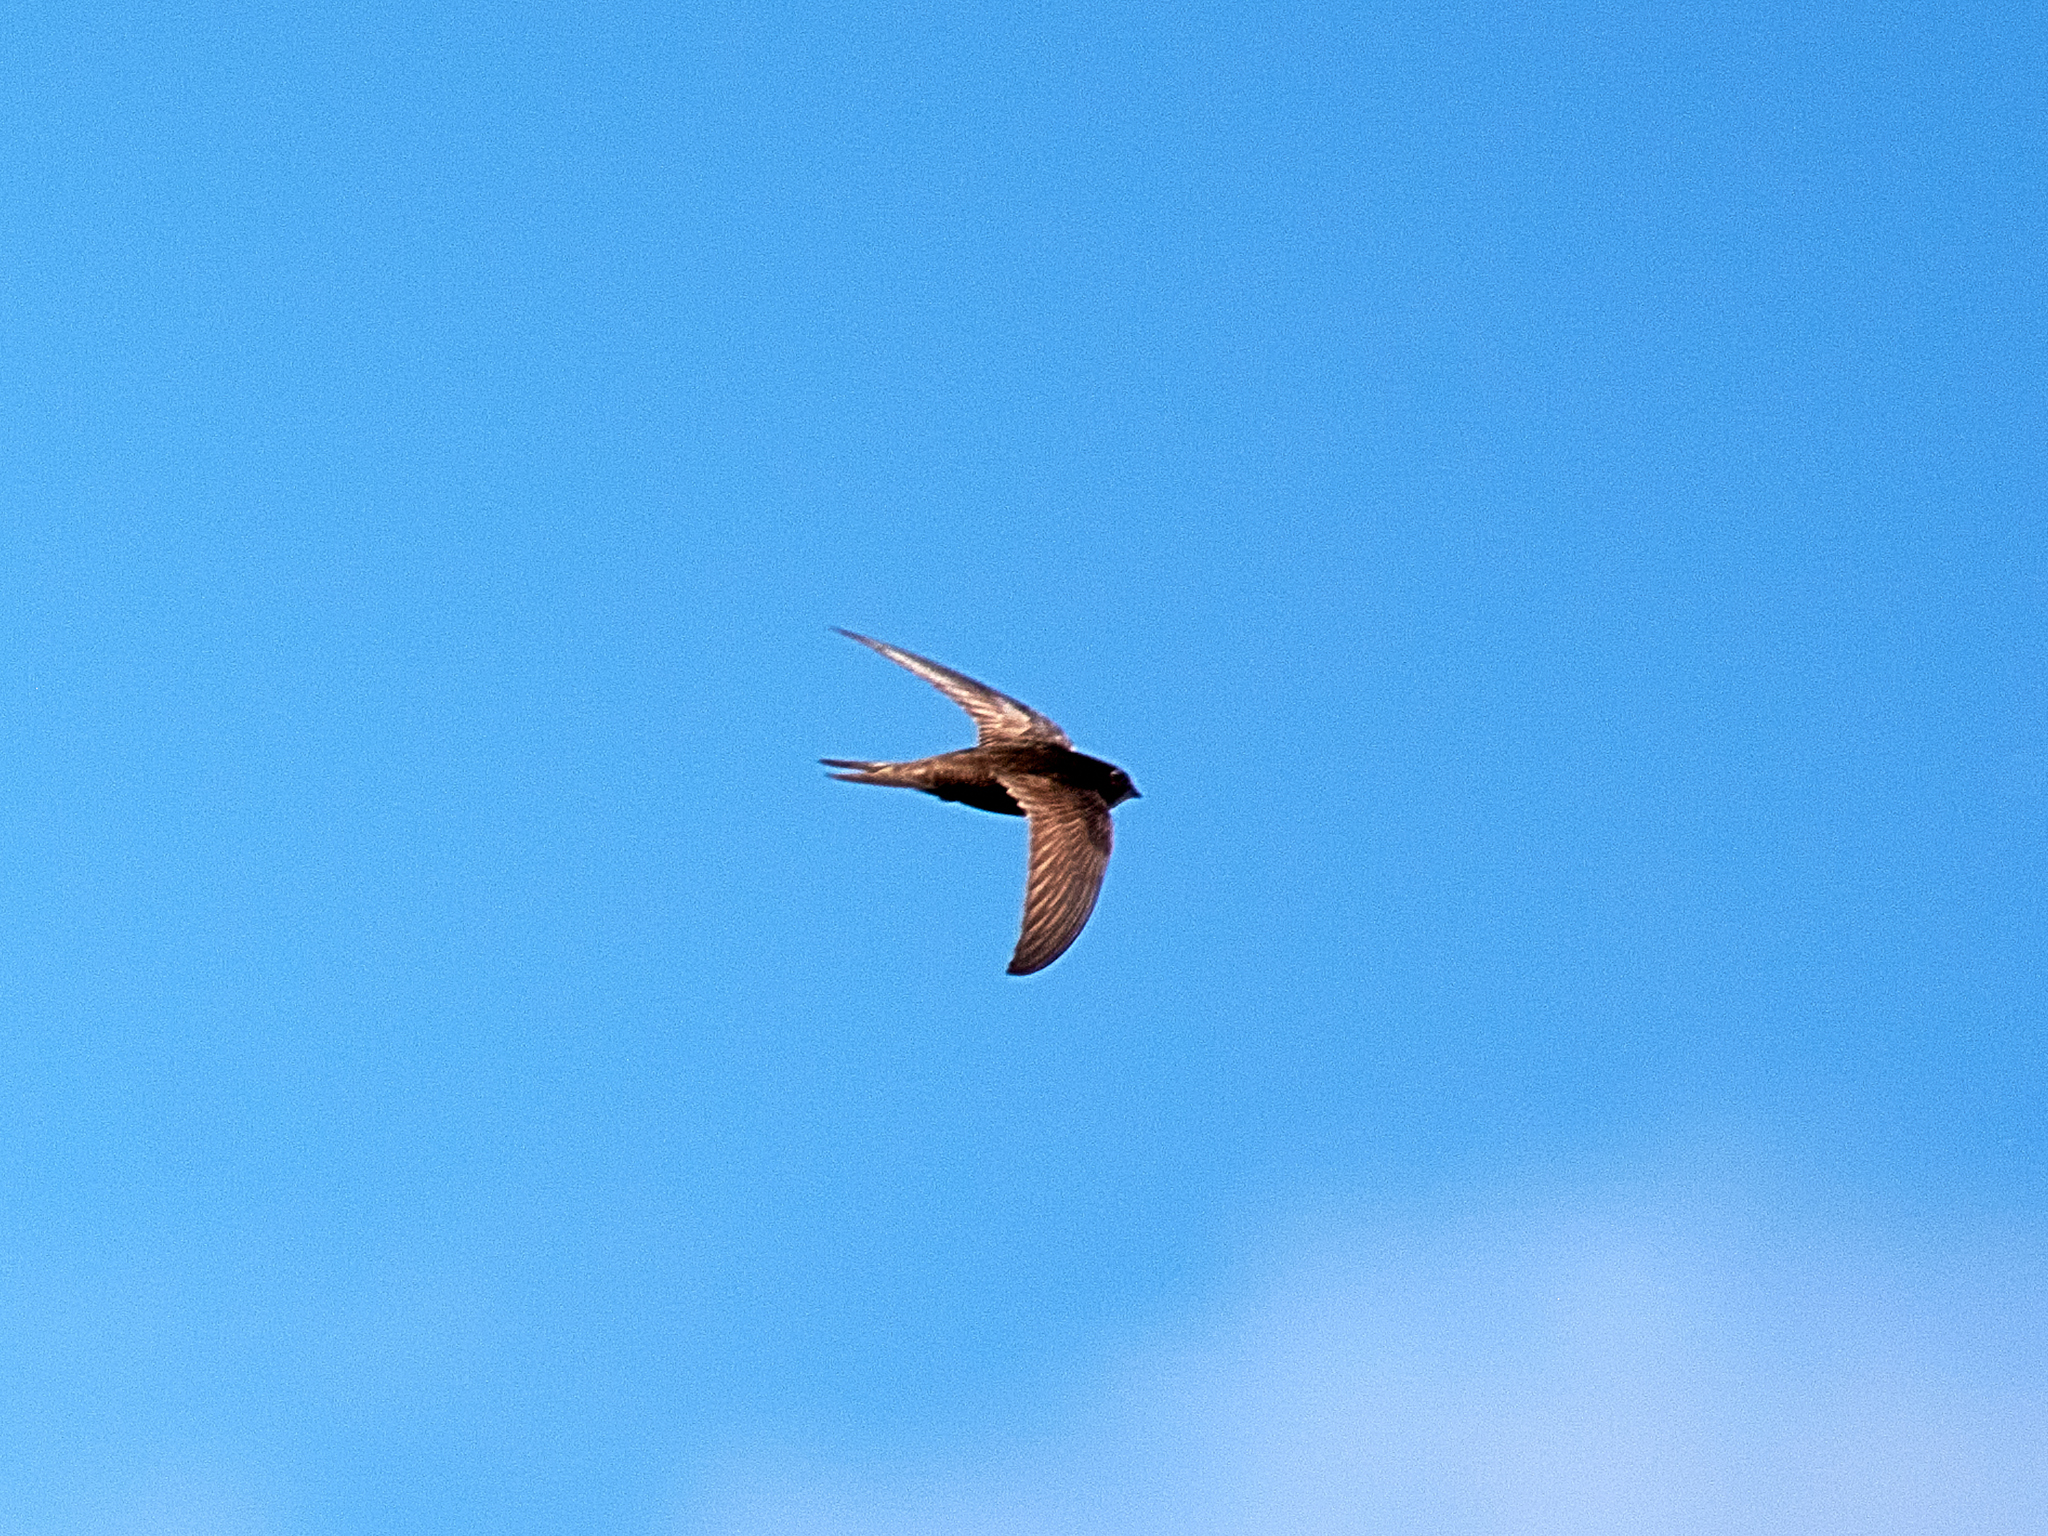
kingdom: Animalia
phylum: Chordata
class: Aves
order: Apodiformes
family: Apodidae
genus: Apus
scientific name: Apus apus
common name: Common swift
